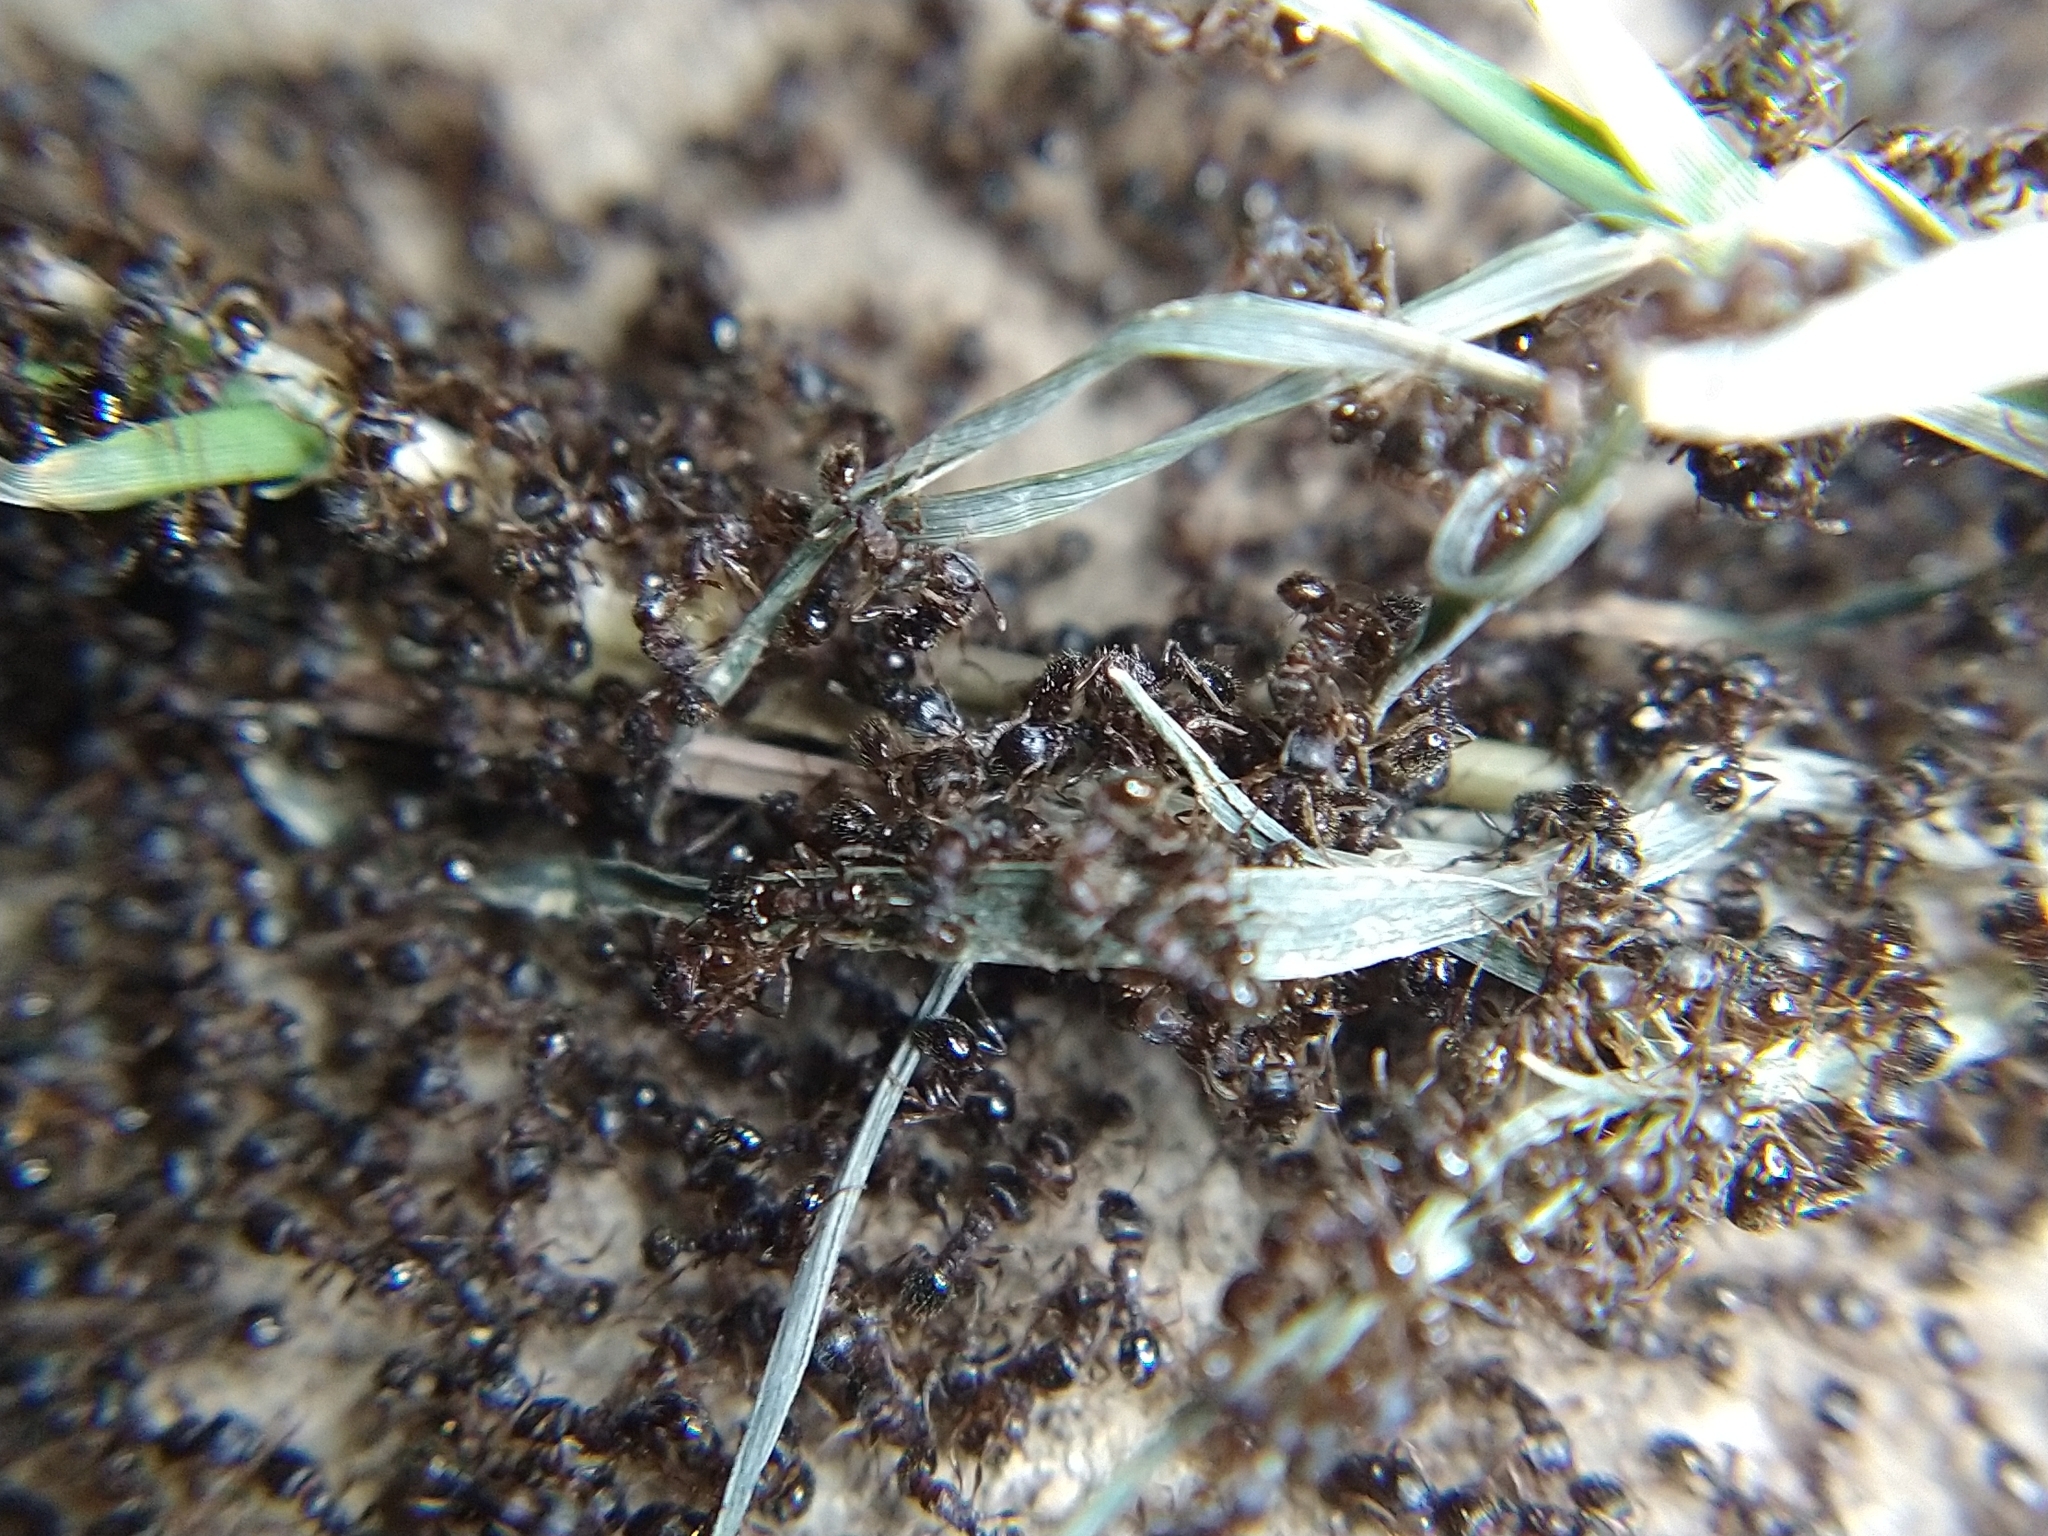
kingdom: Animalia
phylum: Arthropoda
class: Insecta
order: Hymenoptera
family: Formicidae
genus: Tetramorium
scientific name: Tetramorium immigrans
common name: Pavement ant
